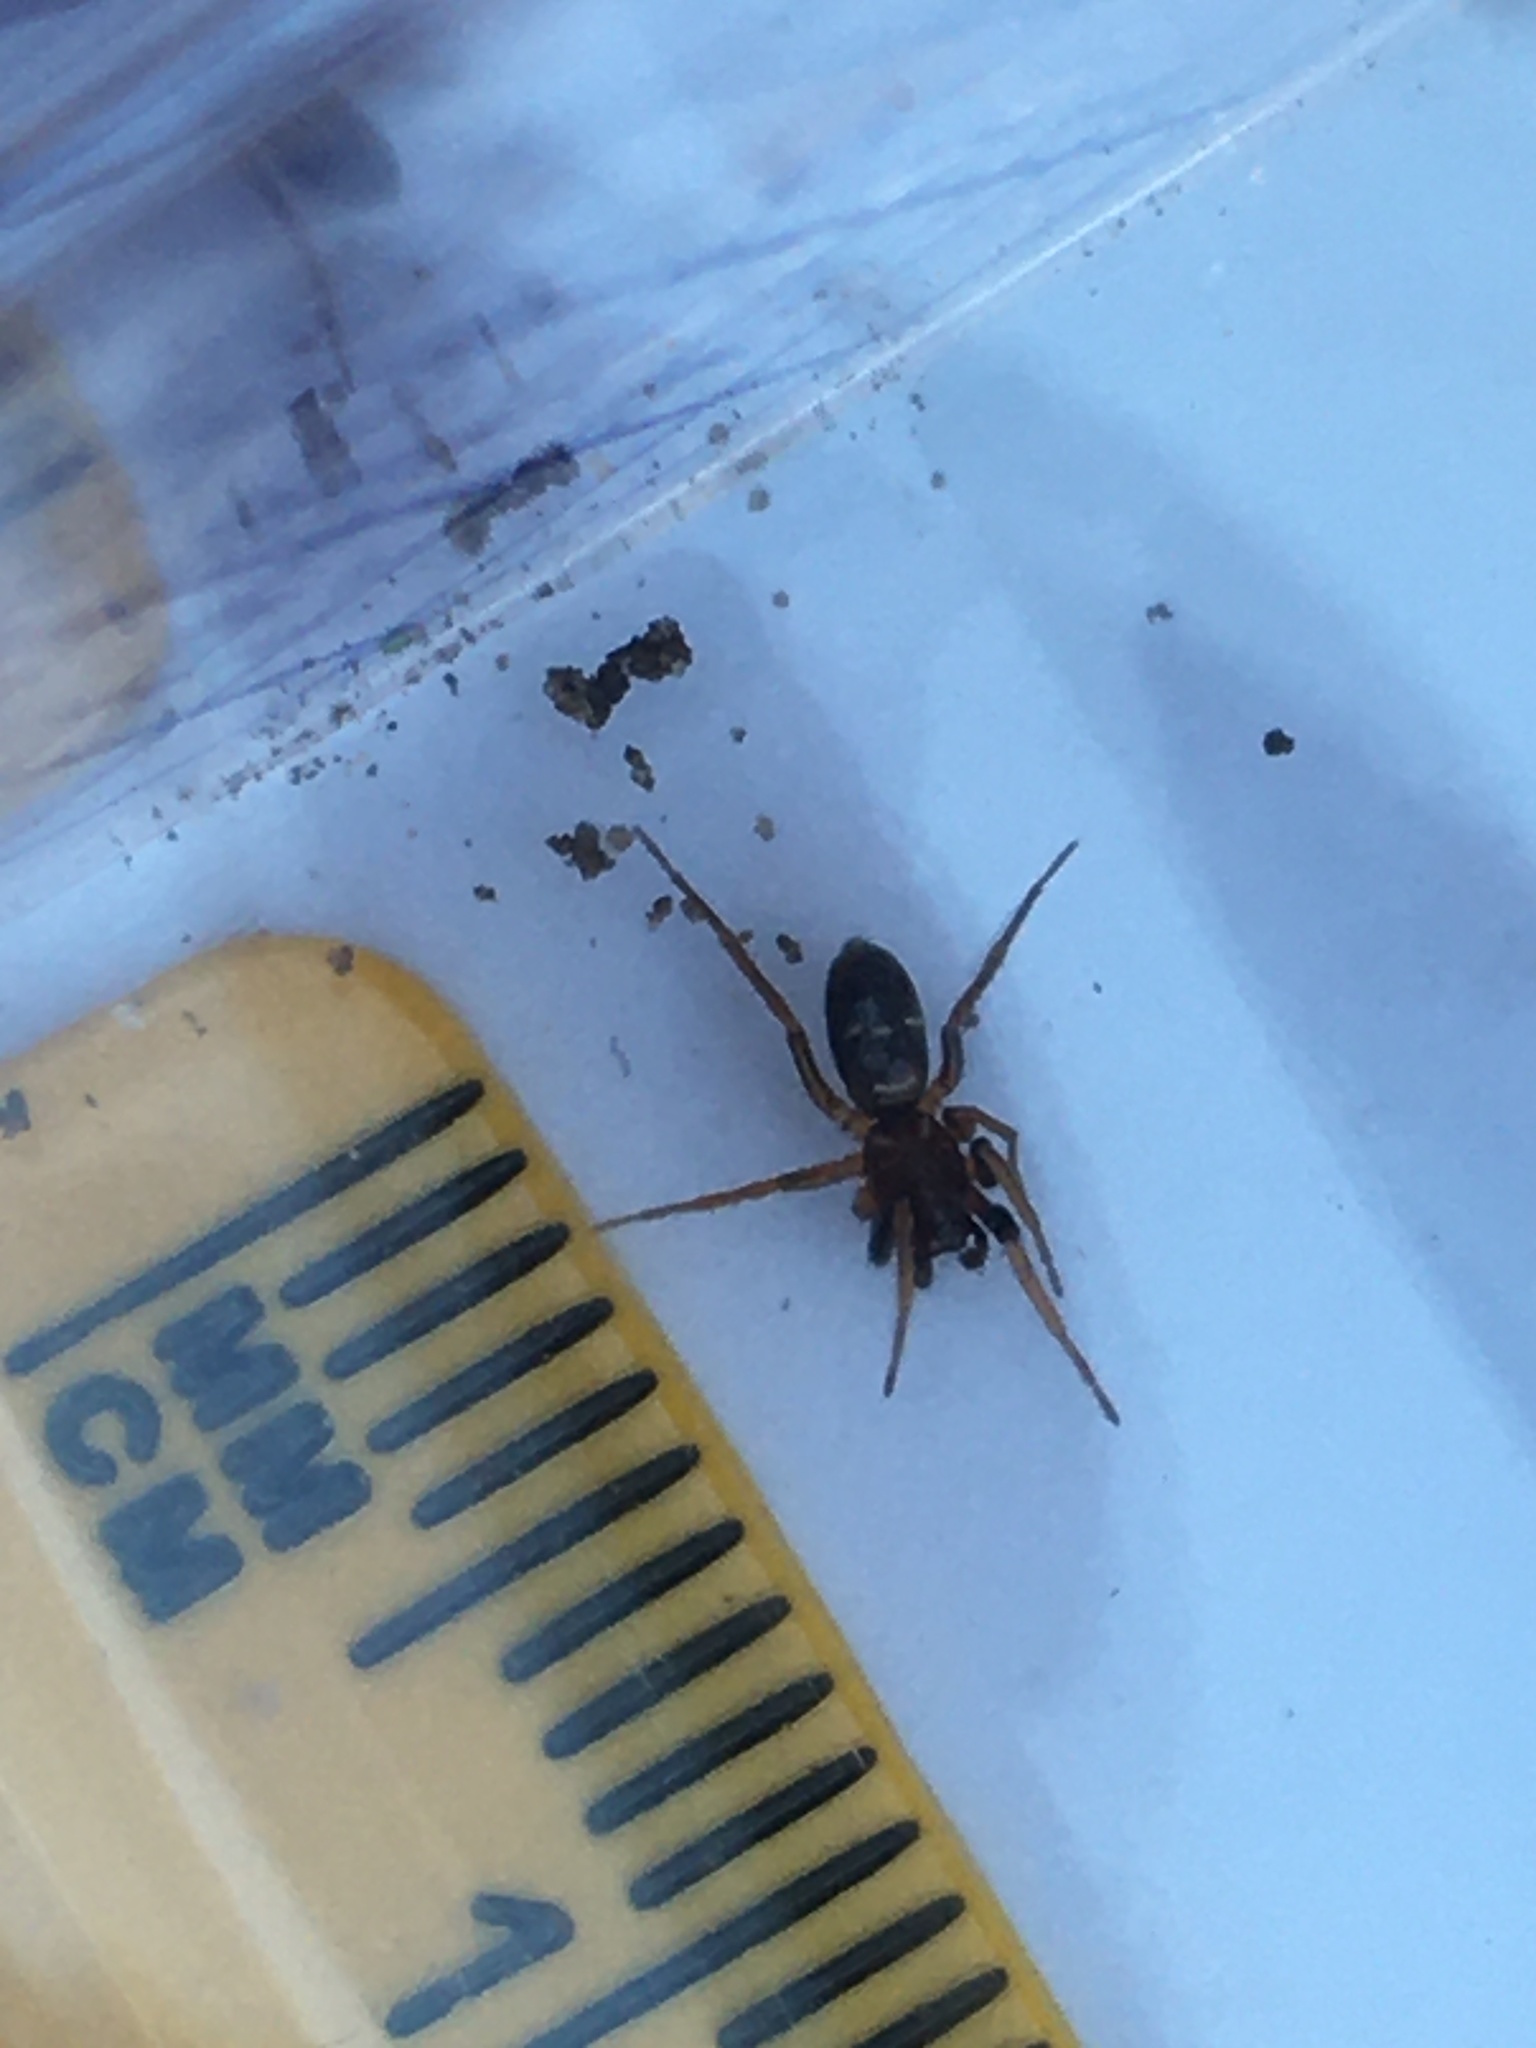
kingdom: Animalia
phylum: Arthropoda
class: Arachnida
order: Araneae
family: Gnaphosidae
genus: Micaria
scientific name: Micaria micans
